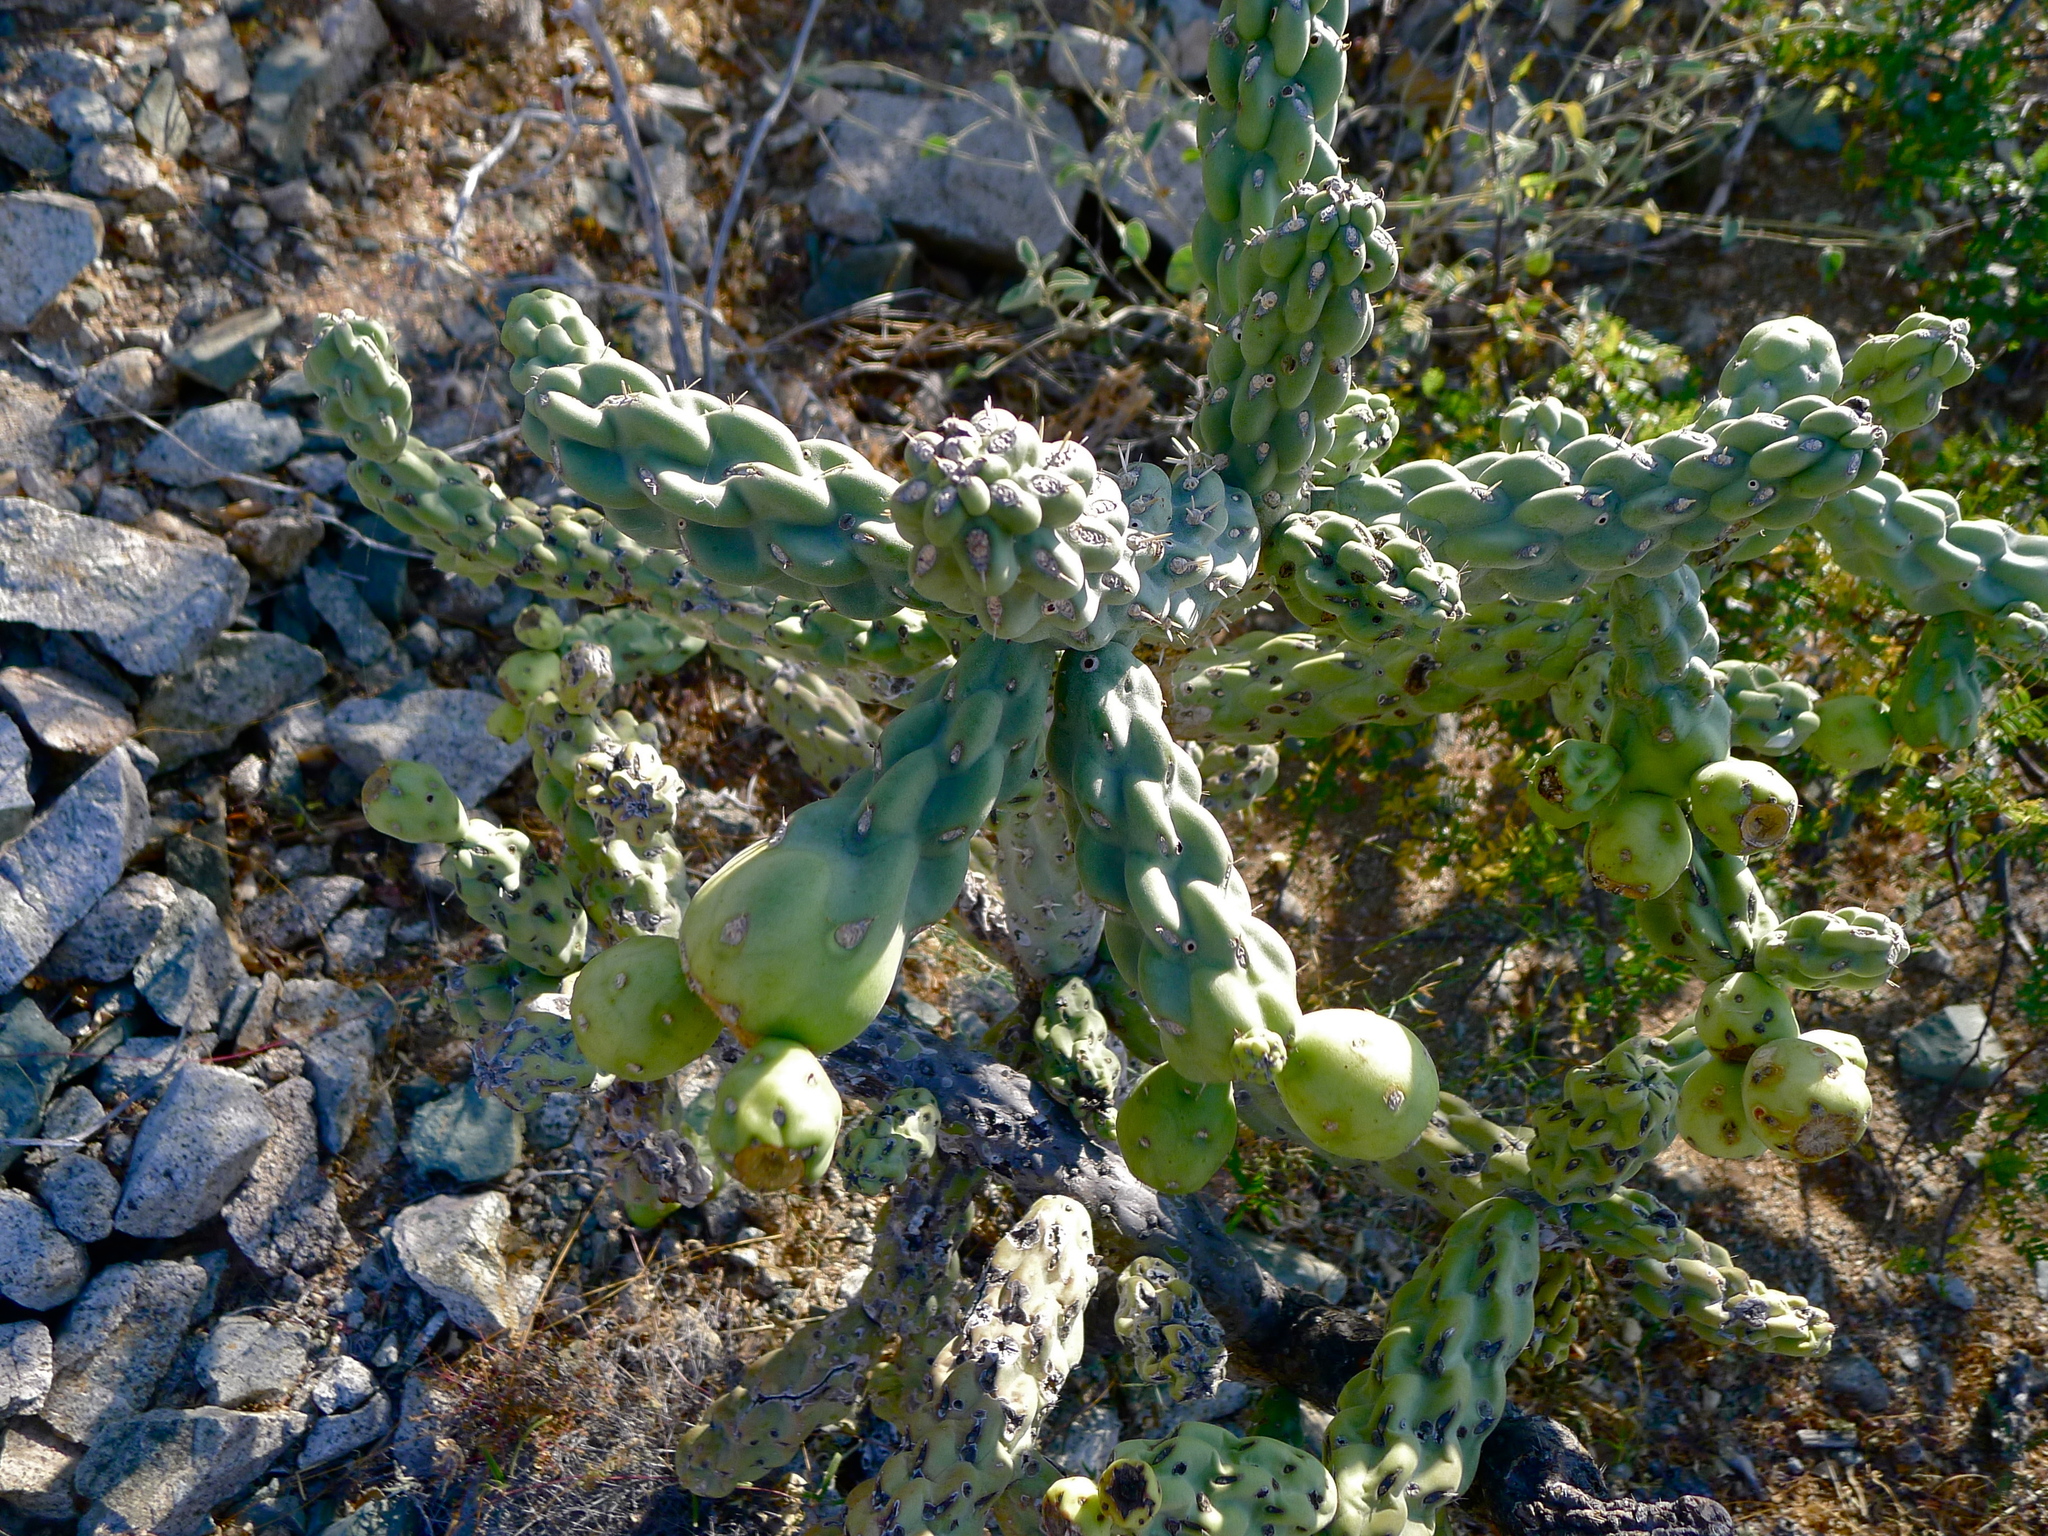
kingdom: Plantae
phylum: Tracheophyta
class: Magnoliopsida
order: Caryophyllales
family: Cactaceae
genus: Cylindropuntia
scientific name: Cylindropuntia cholla
